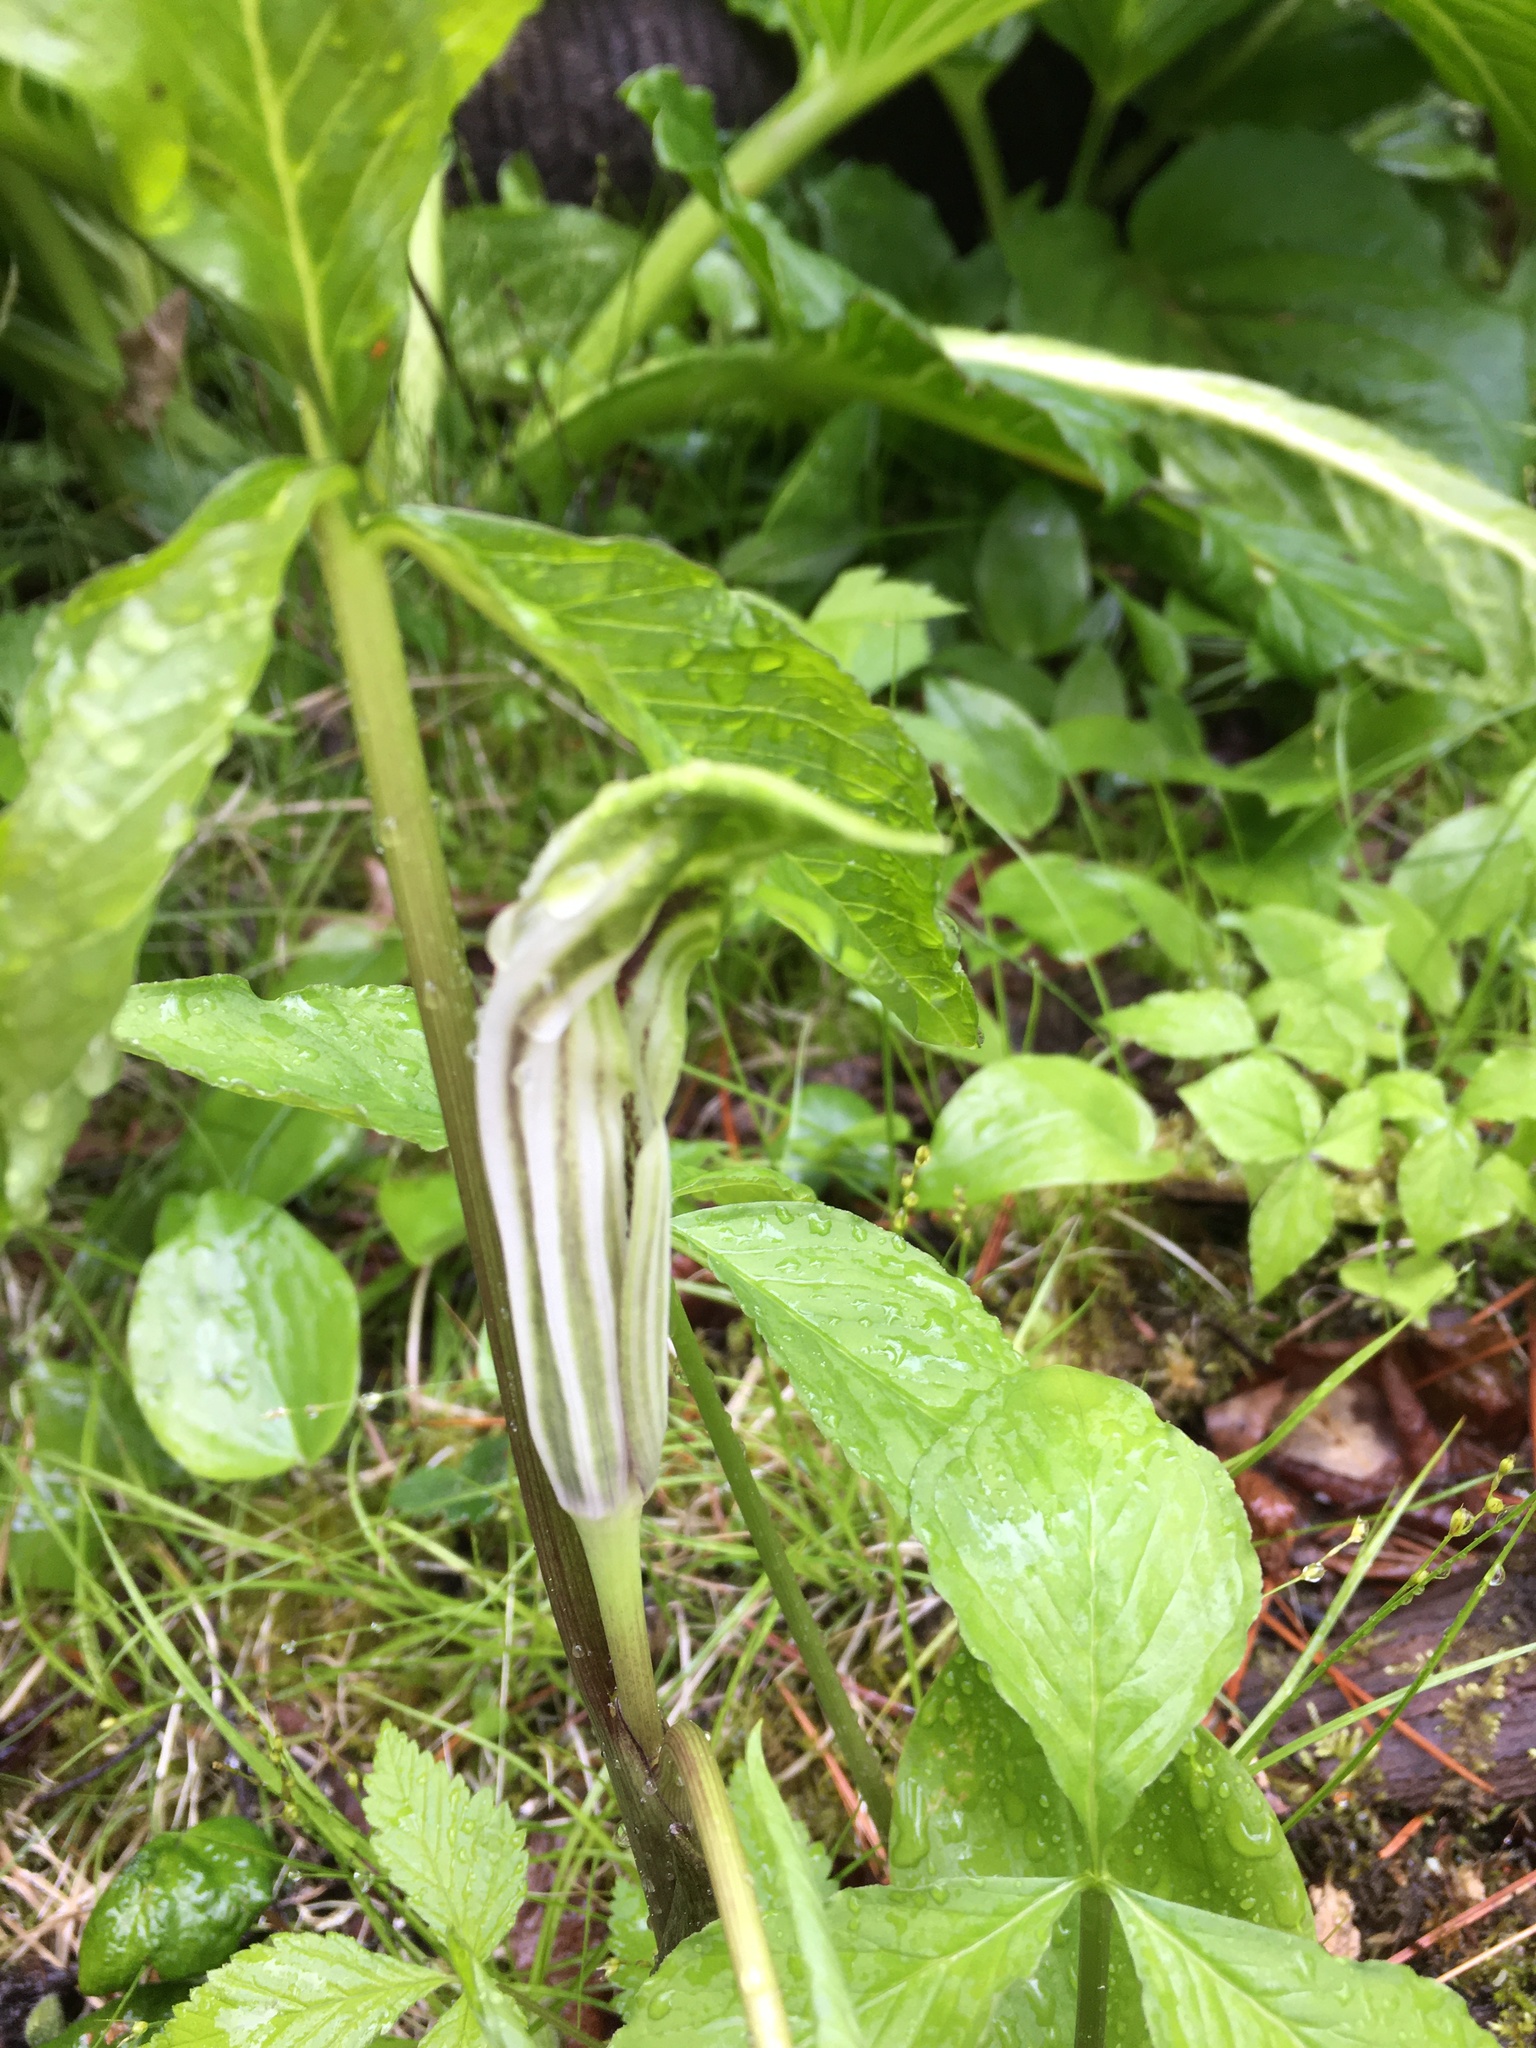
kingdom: Plantae
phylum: Tracheophyta
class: Liliopsida
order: Alismatales
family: Araceae
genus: Arisaema
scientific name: Arisaema triphyllum
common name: Jack-in-the-pulpit
